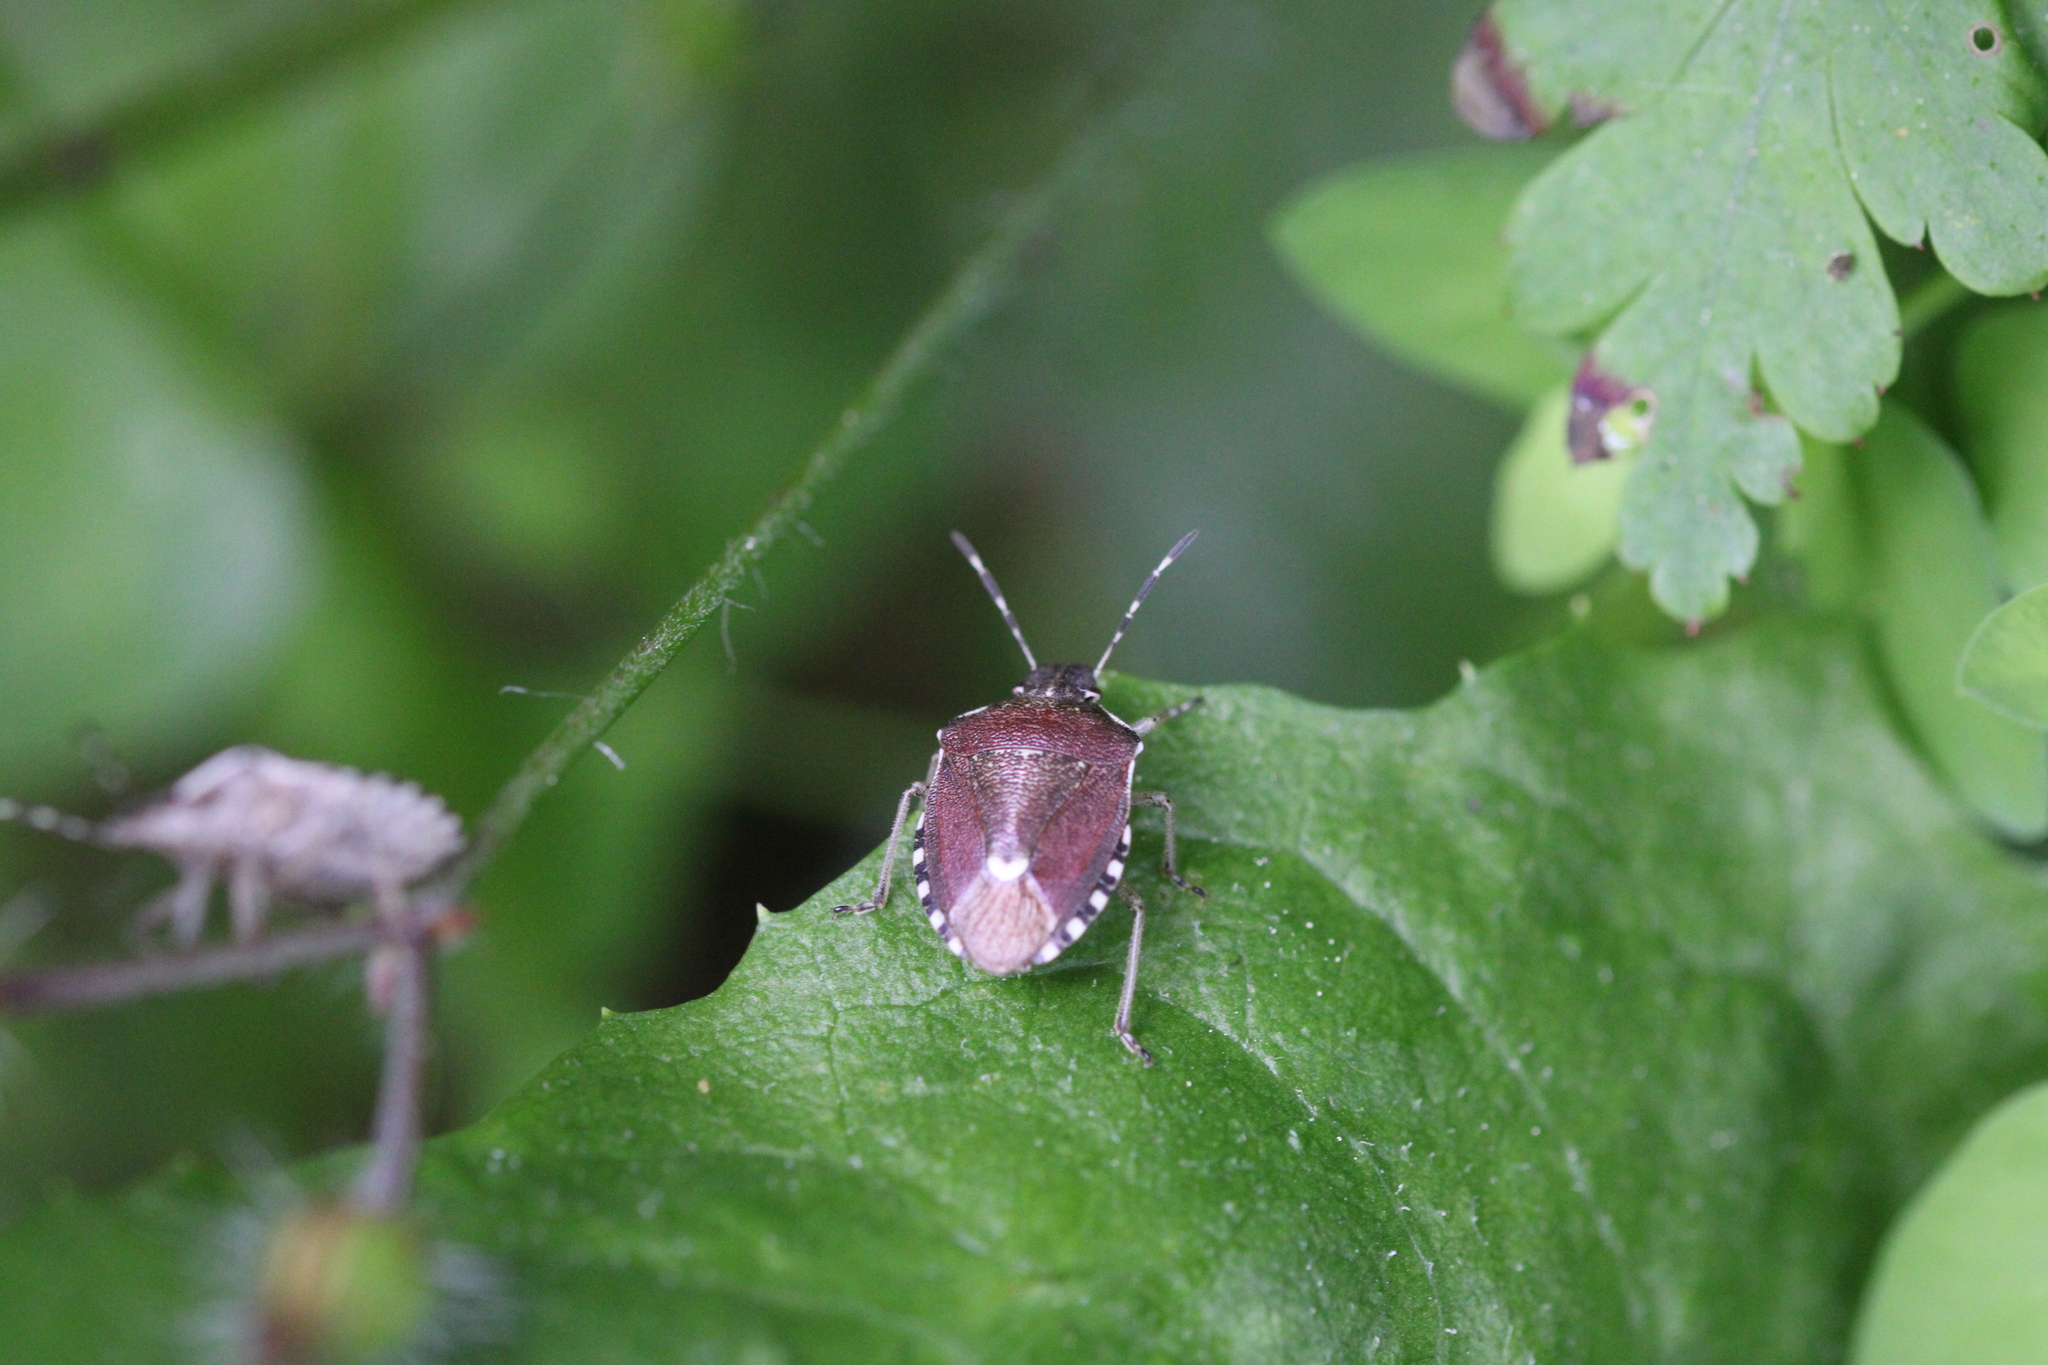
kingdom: Animalia
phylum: Arthropoda
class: Insecta
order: Hemiptera
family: Pentatomidae
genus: Holcostethus
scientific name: Holcostethus sphacelatus
